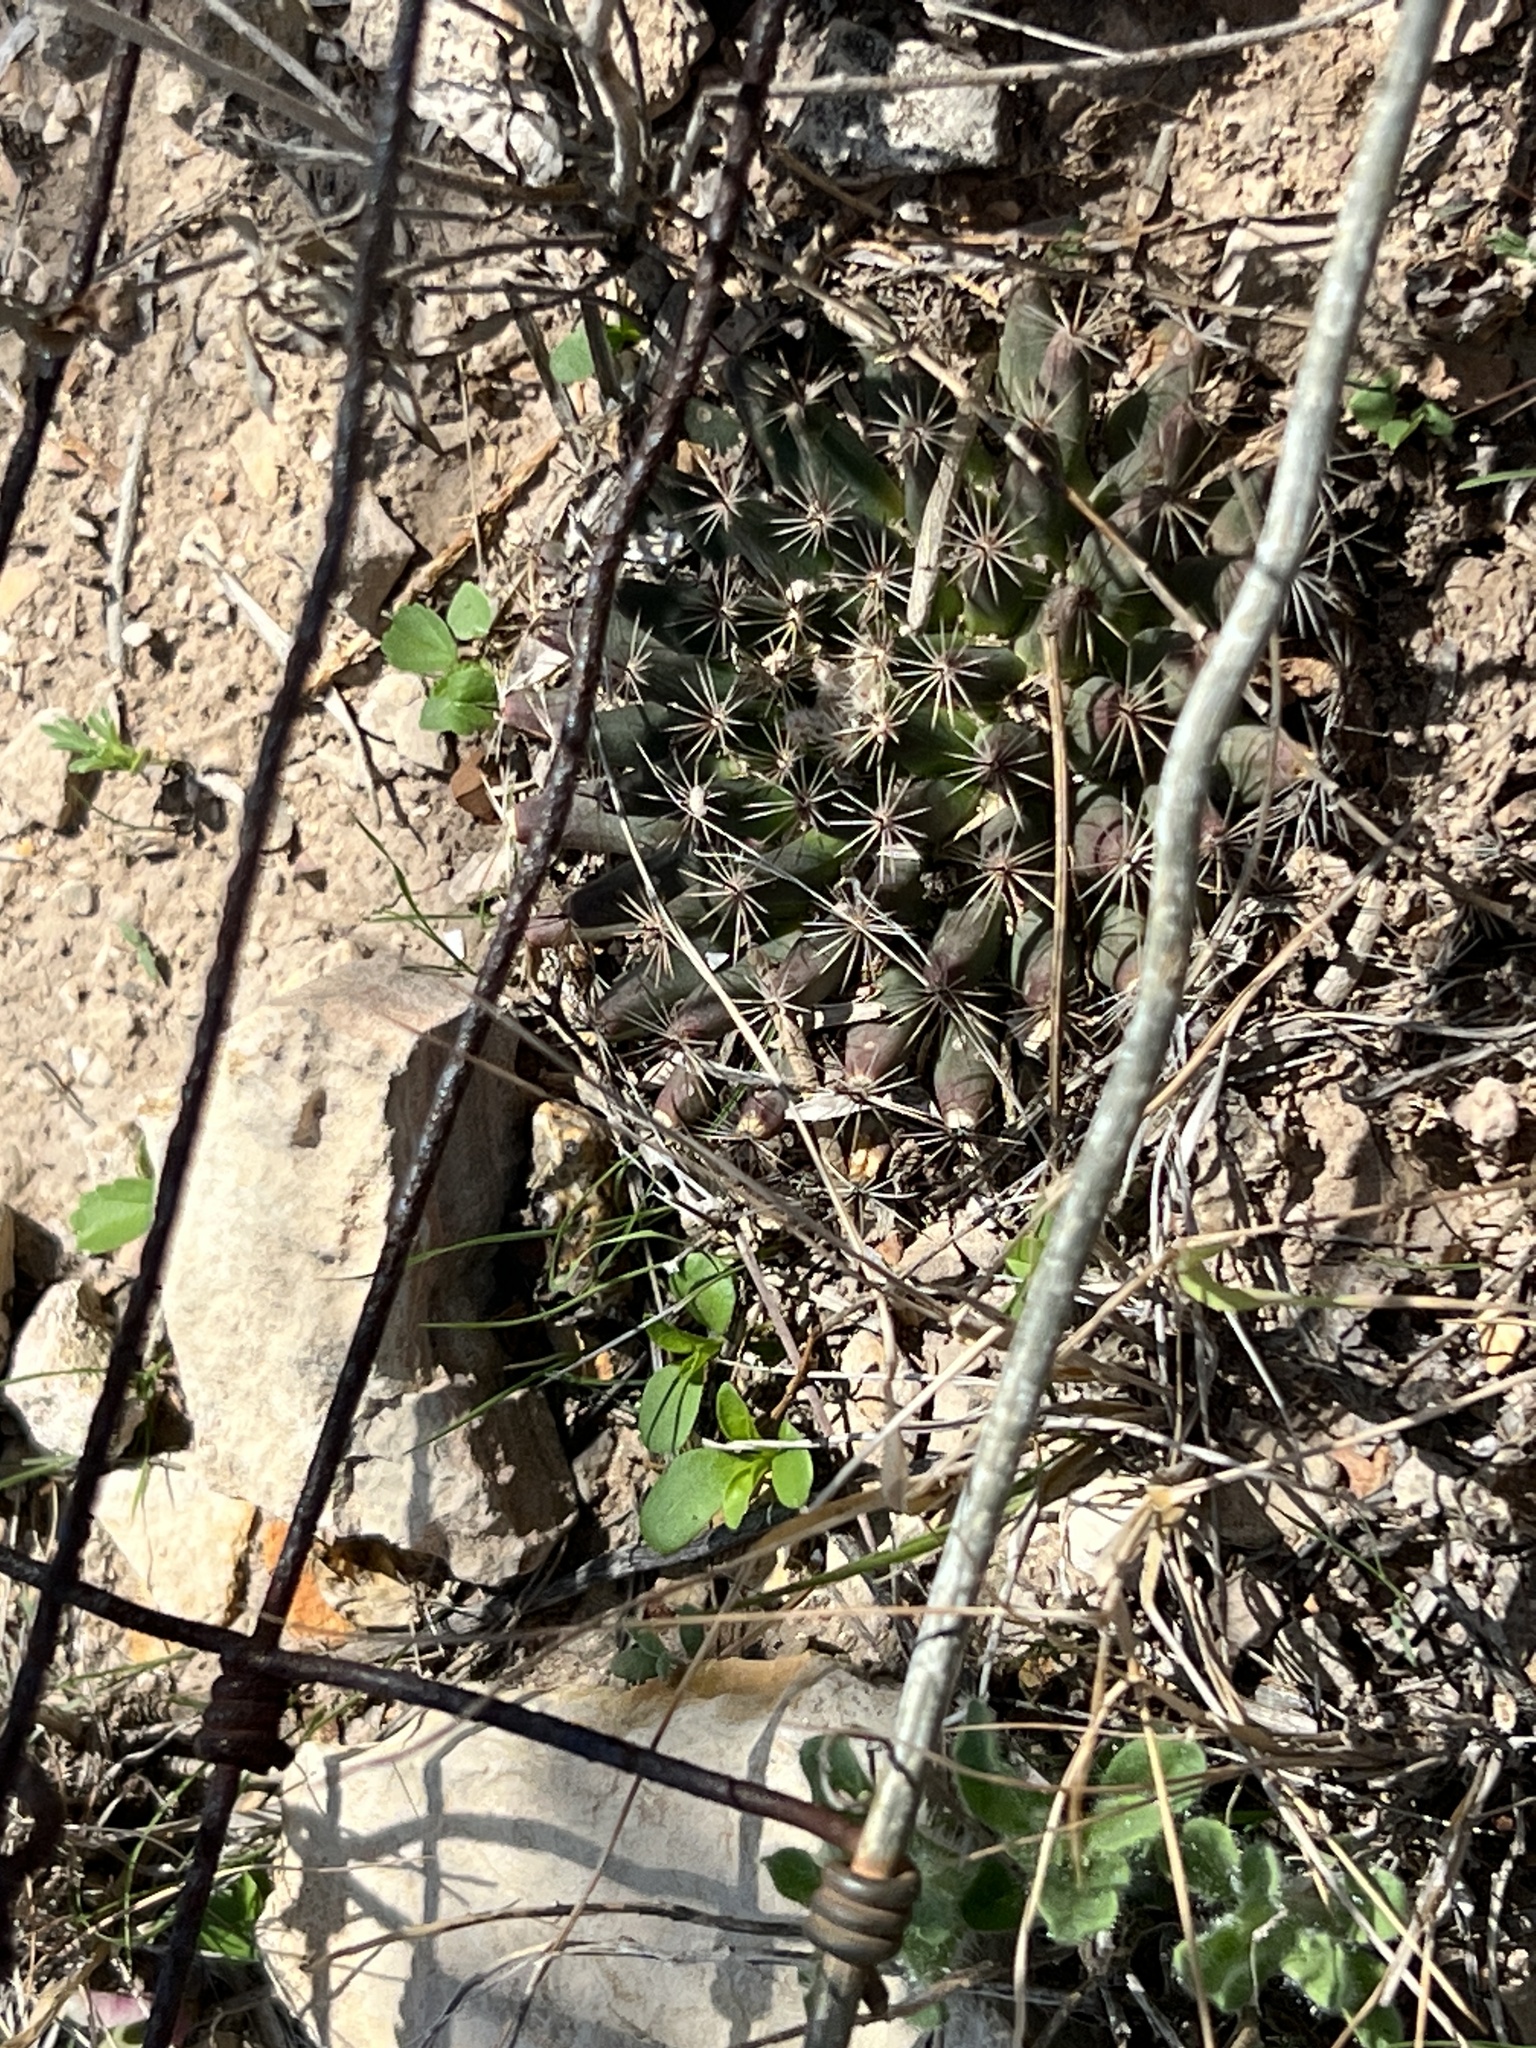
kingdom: Plantae
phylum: Tracheophyta
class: Magnoliopsida
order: Caryophyllales
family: Cactaceae
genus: Mammillaria
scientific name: Mammillaria heyderi
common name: Little nipple cactus
